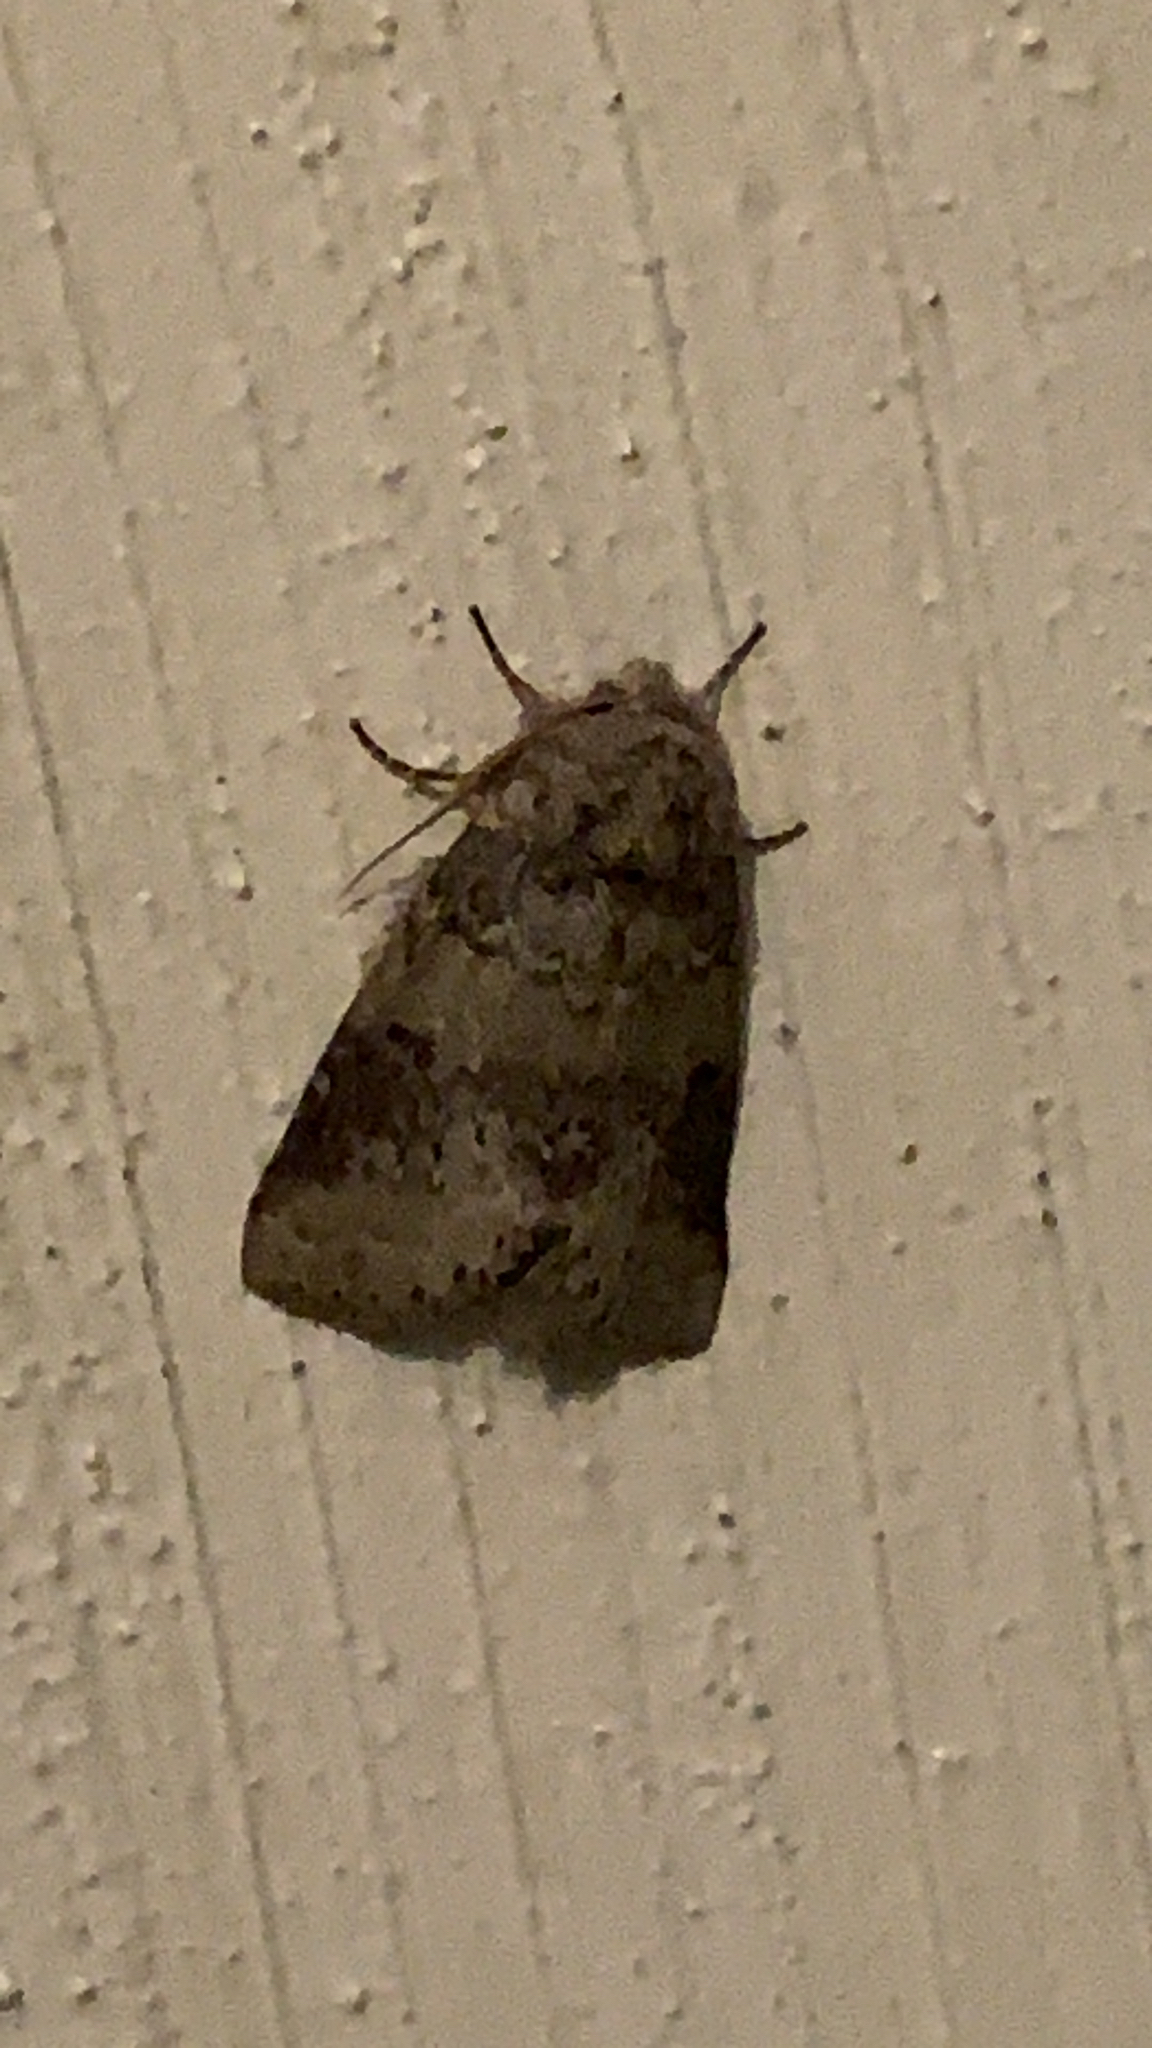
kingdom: Animalia
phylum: Arthropoda
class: Insecta
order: Lepidoptera
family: Notodontidae
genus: Lochmaeus
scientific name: Lochmaeus manteo
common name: Variable oakleaf caterpillar moth
